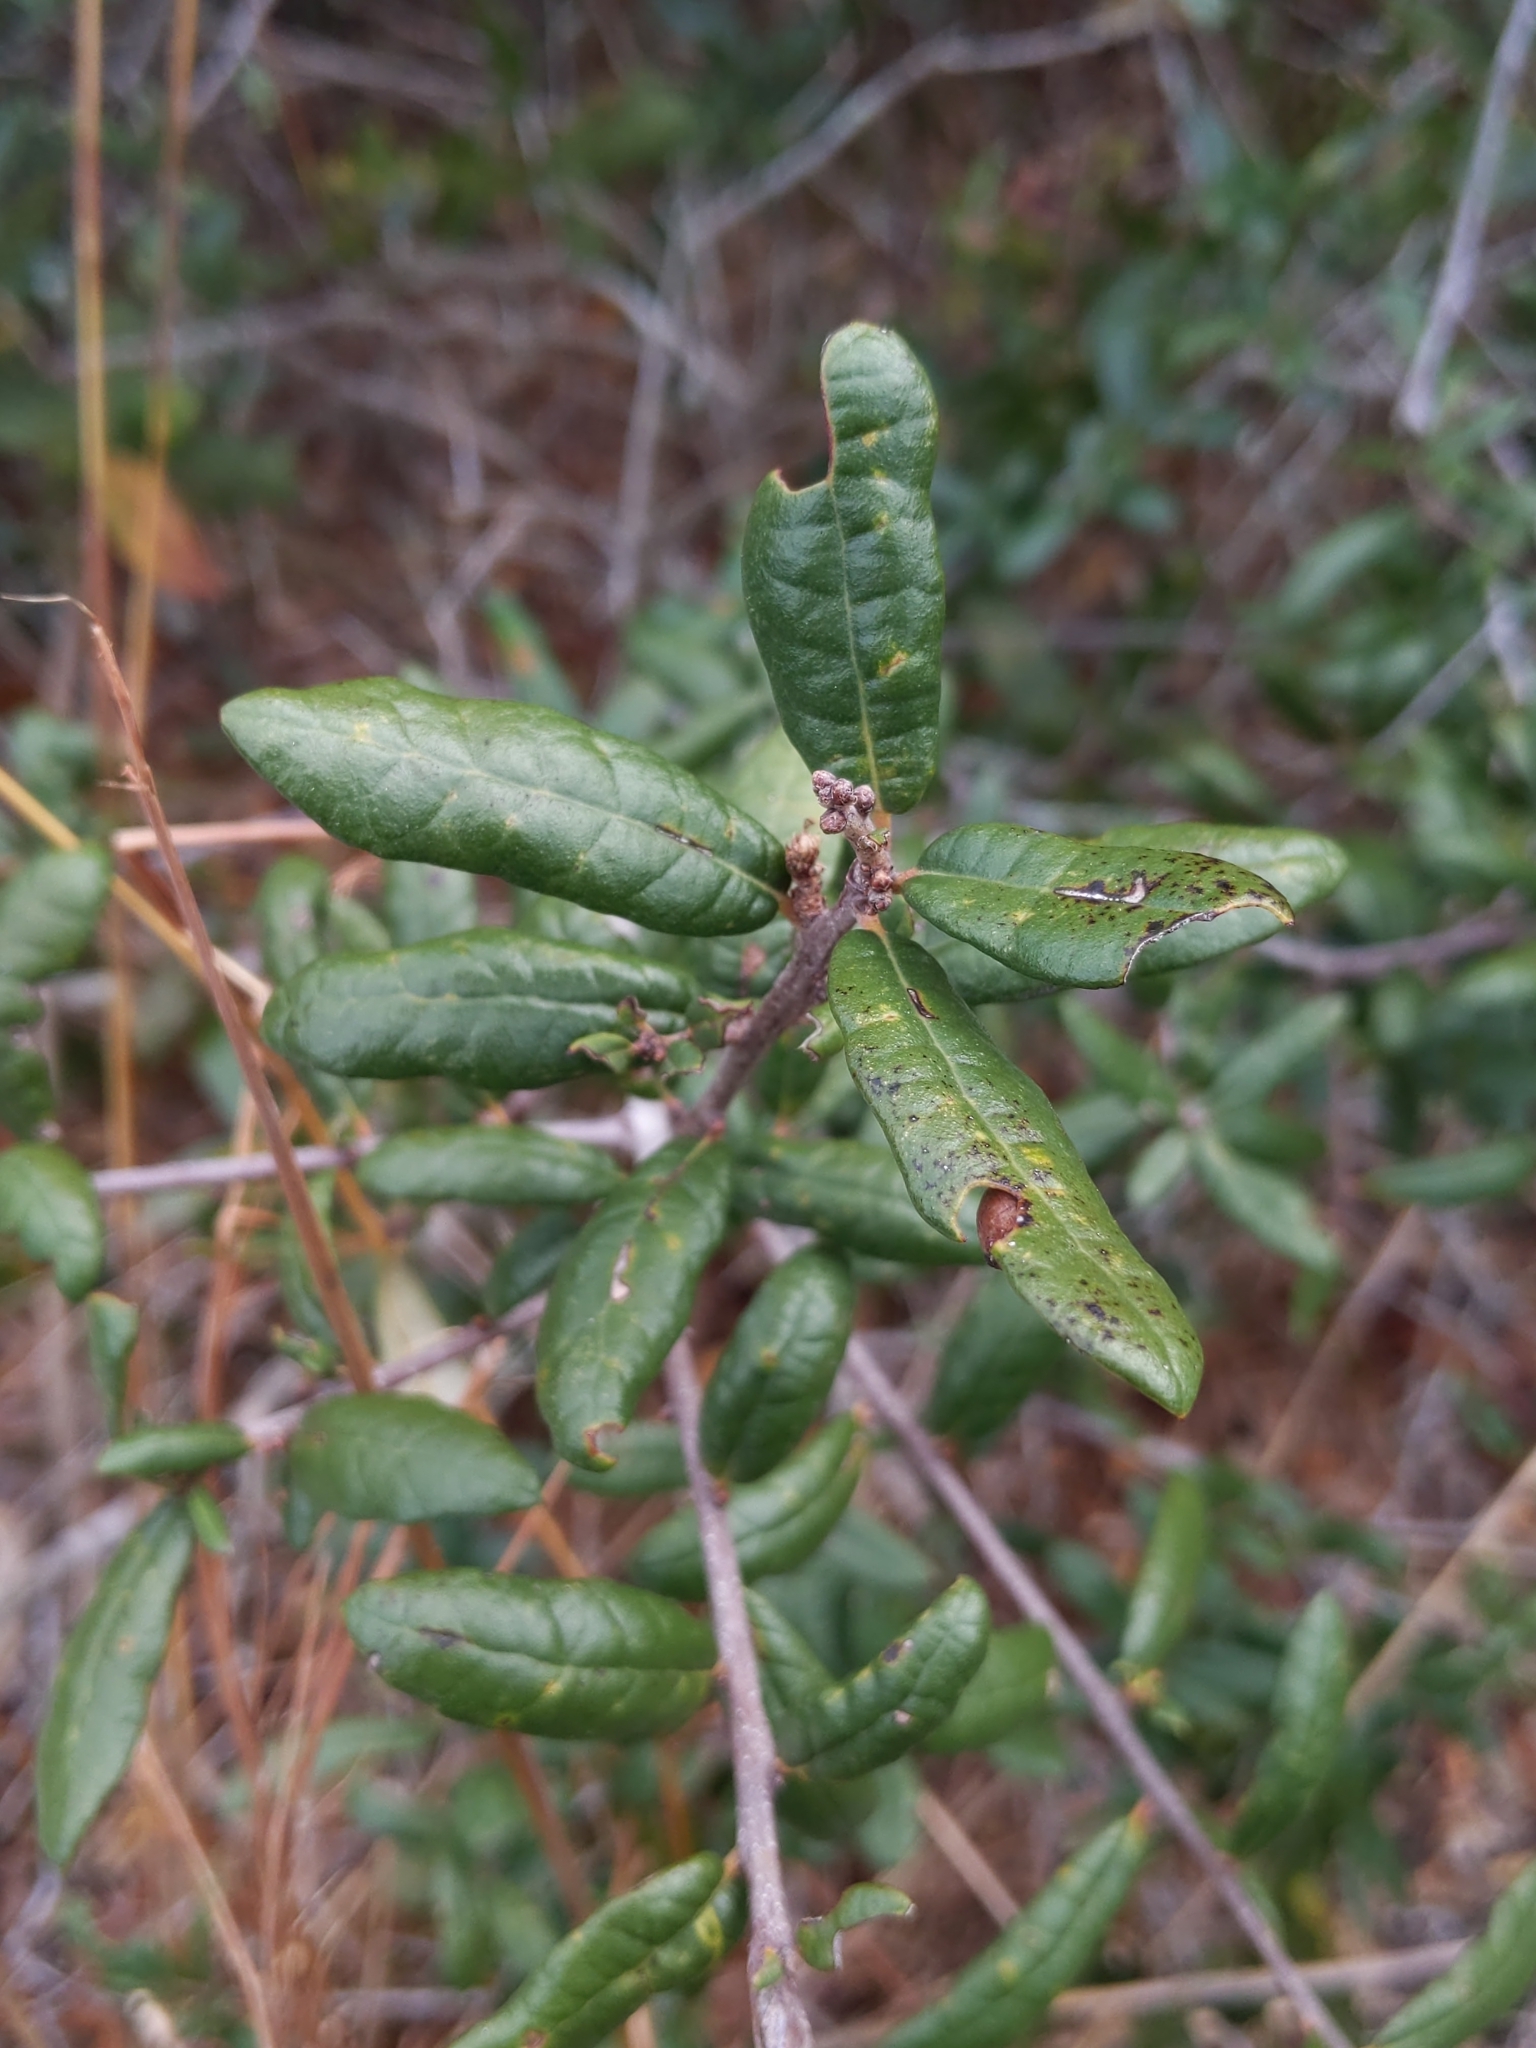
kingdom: Plantae
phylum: Tracheophyta
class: Magnoliopsida
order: Fagales
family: Fagaceae
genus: Quercus
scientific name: Quercus geminata
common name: Sand live oak
